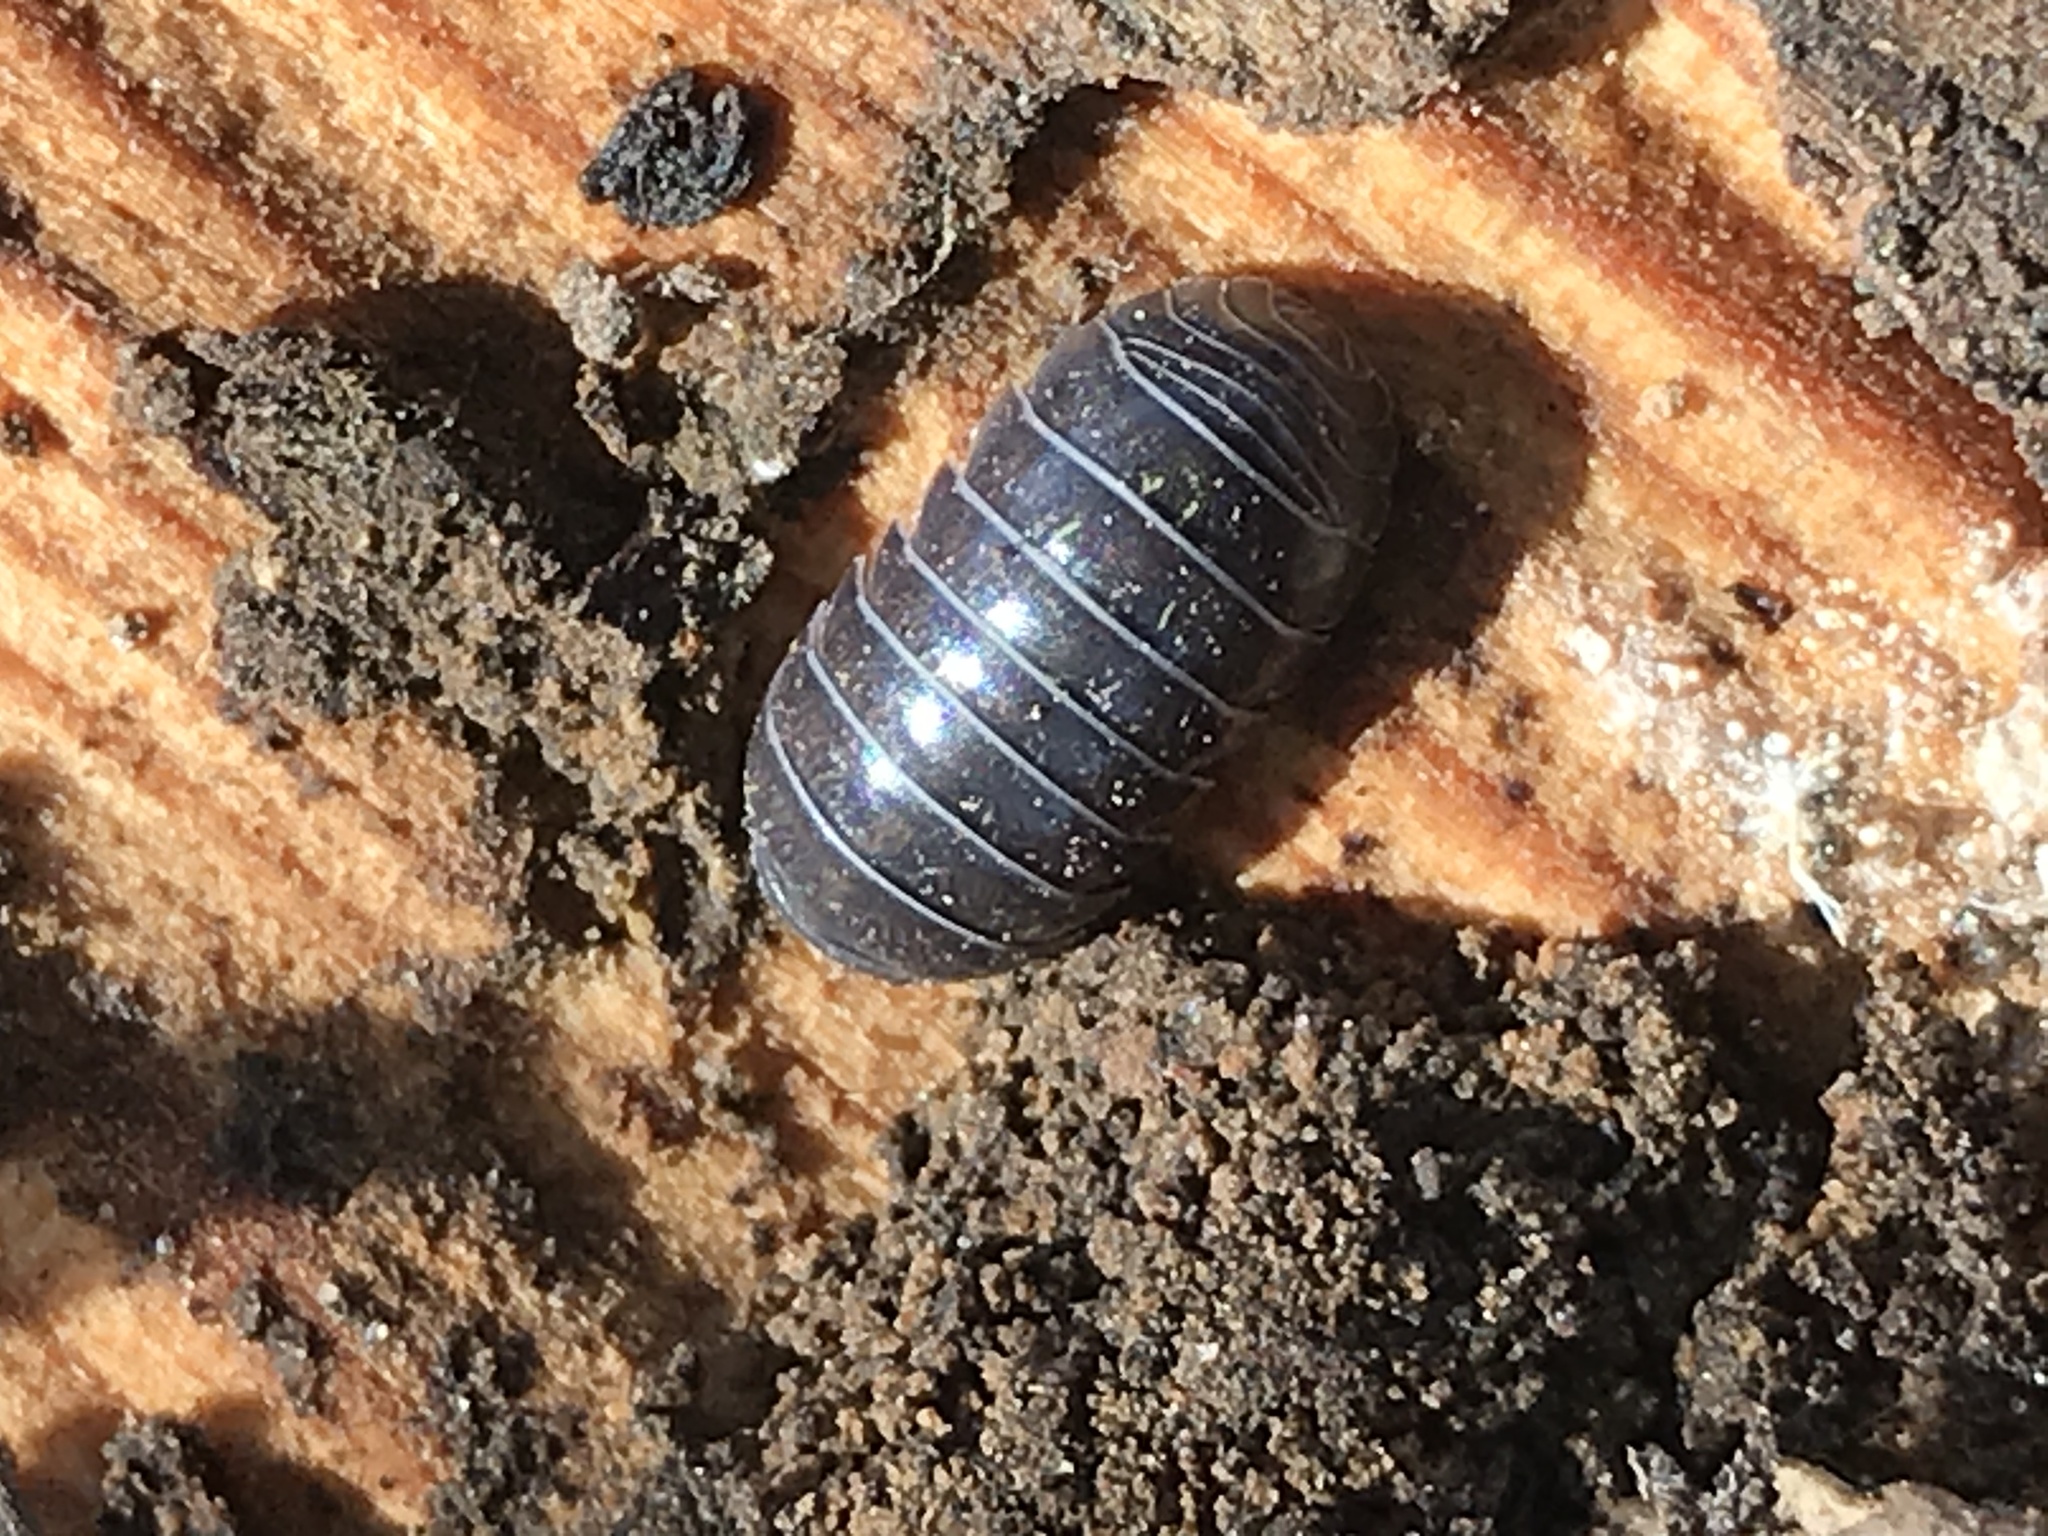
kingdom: Animalia
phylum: Arthropoda
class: Malacostraca
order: Isopoda
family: Armadillidiidae
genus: Armadillidium
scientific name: Armadillidium vulgare
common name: Common pill woodlouse
